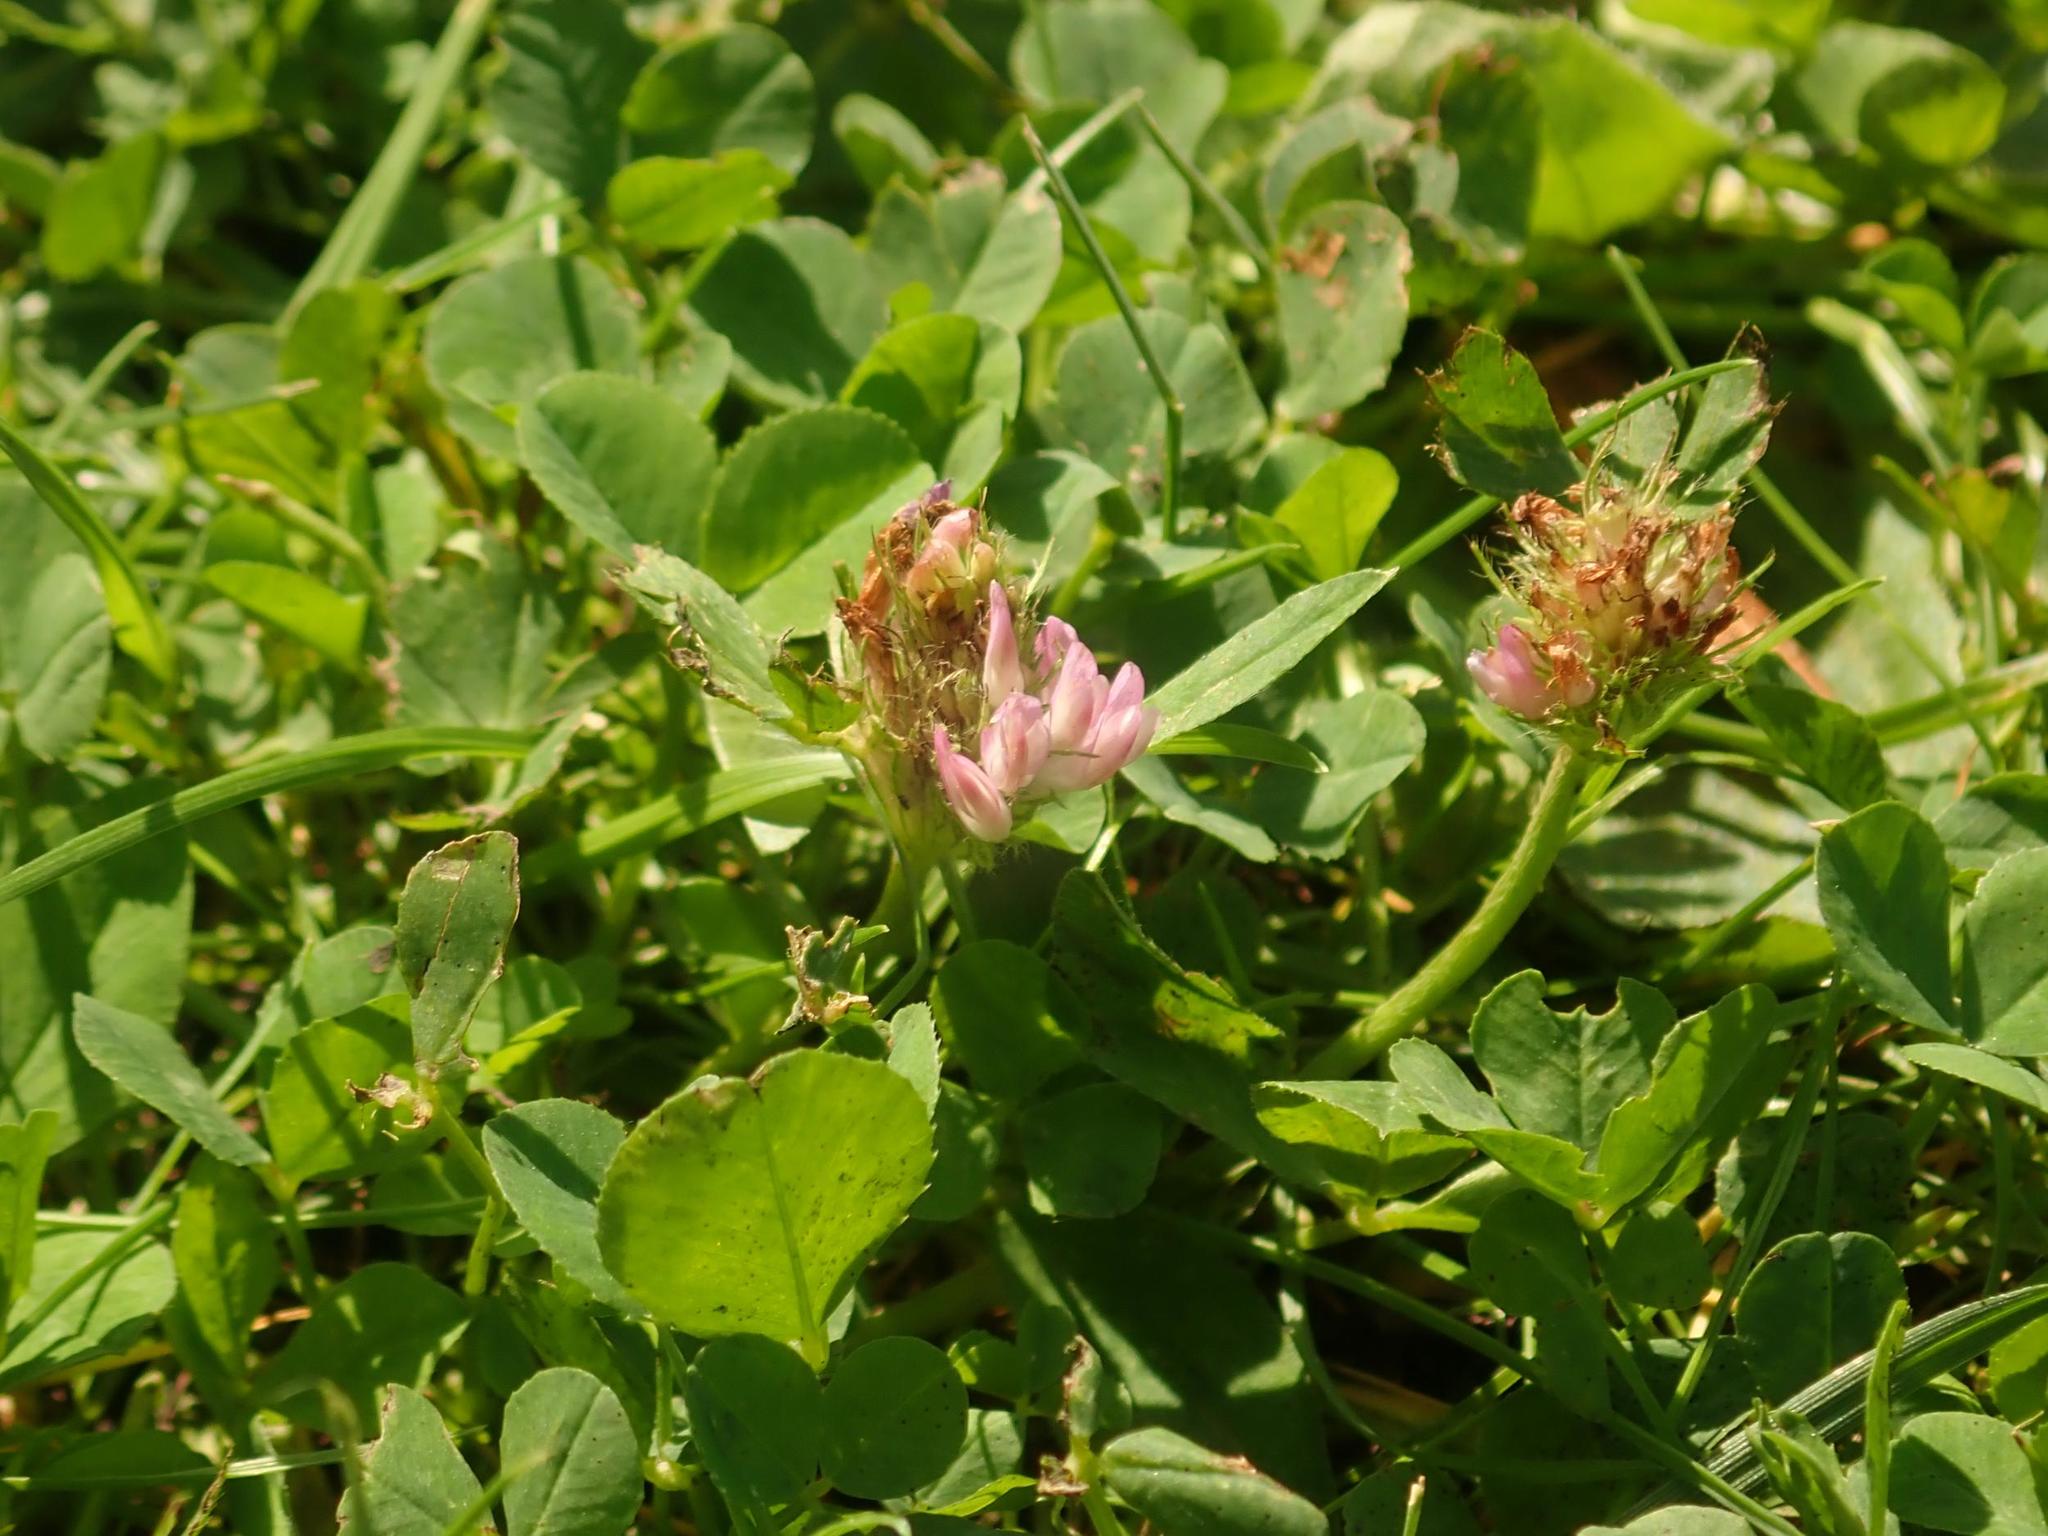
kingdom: Plantae
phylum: Tracheophyta
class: Magnoliopsida
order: Fabales
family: Fabaceae
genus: Trifolium
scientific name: Trifolium pratense
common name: Red clover
